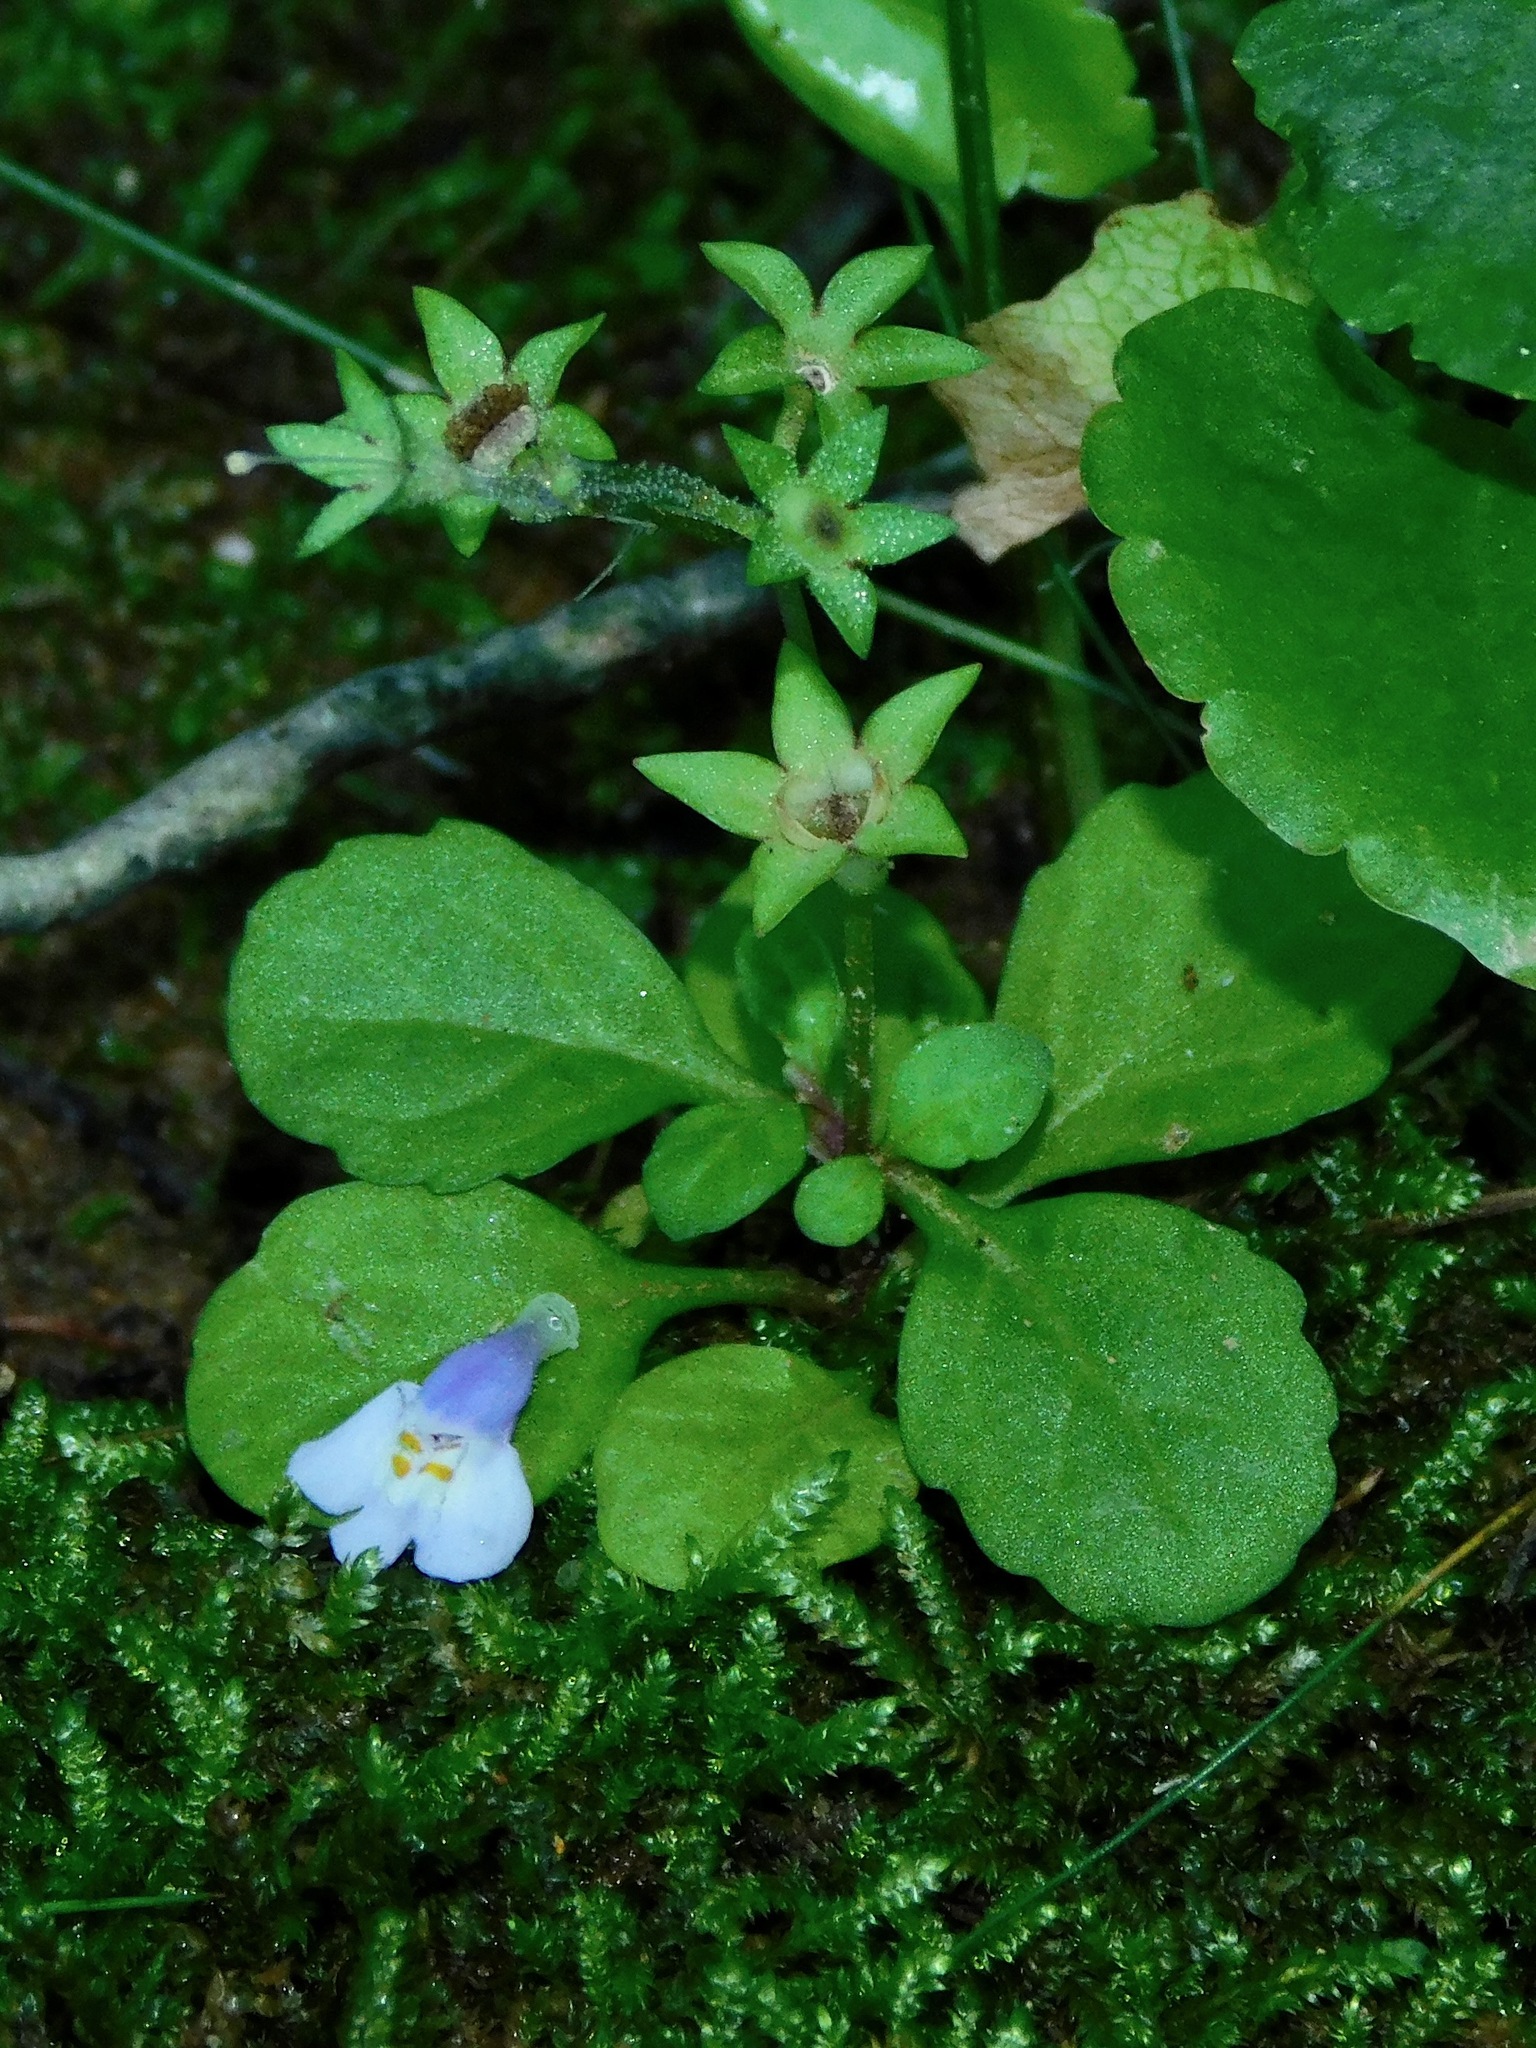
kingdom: Plantae
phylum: Tracheophyta
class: Magnoliopsida
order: Lamiales
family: Mazaceae
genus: Mazus
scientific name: Mazus pumilus
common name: Japanese mazus
